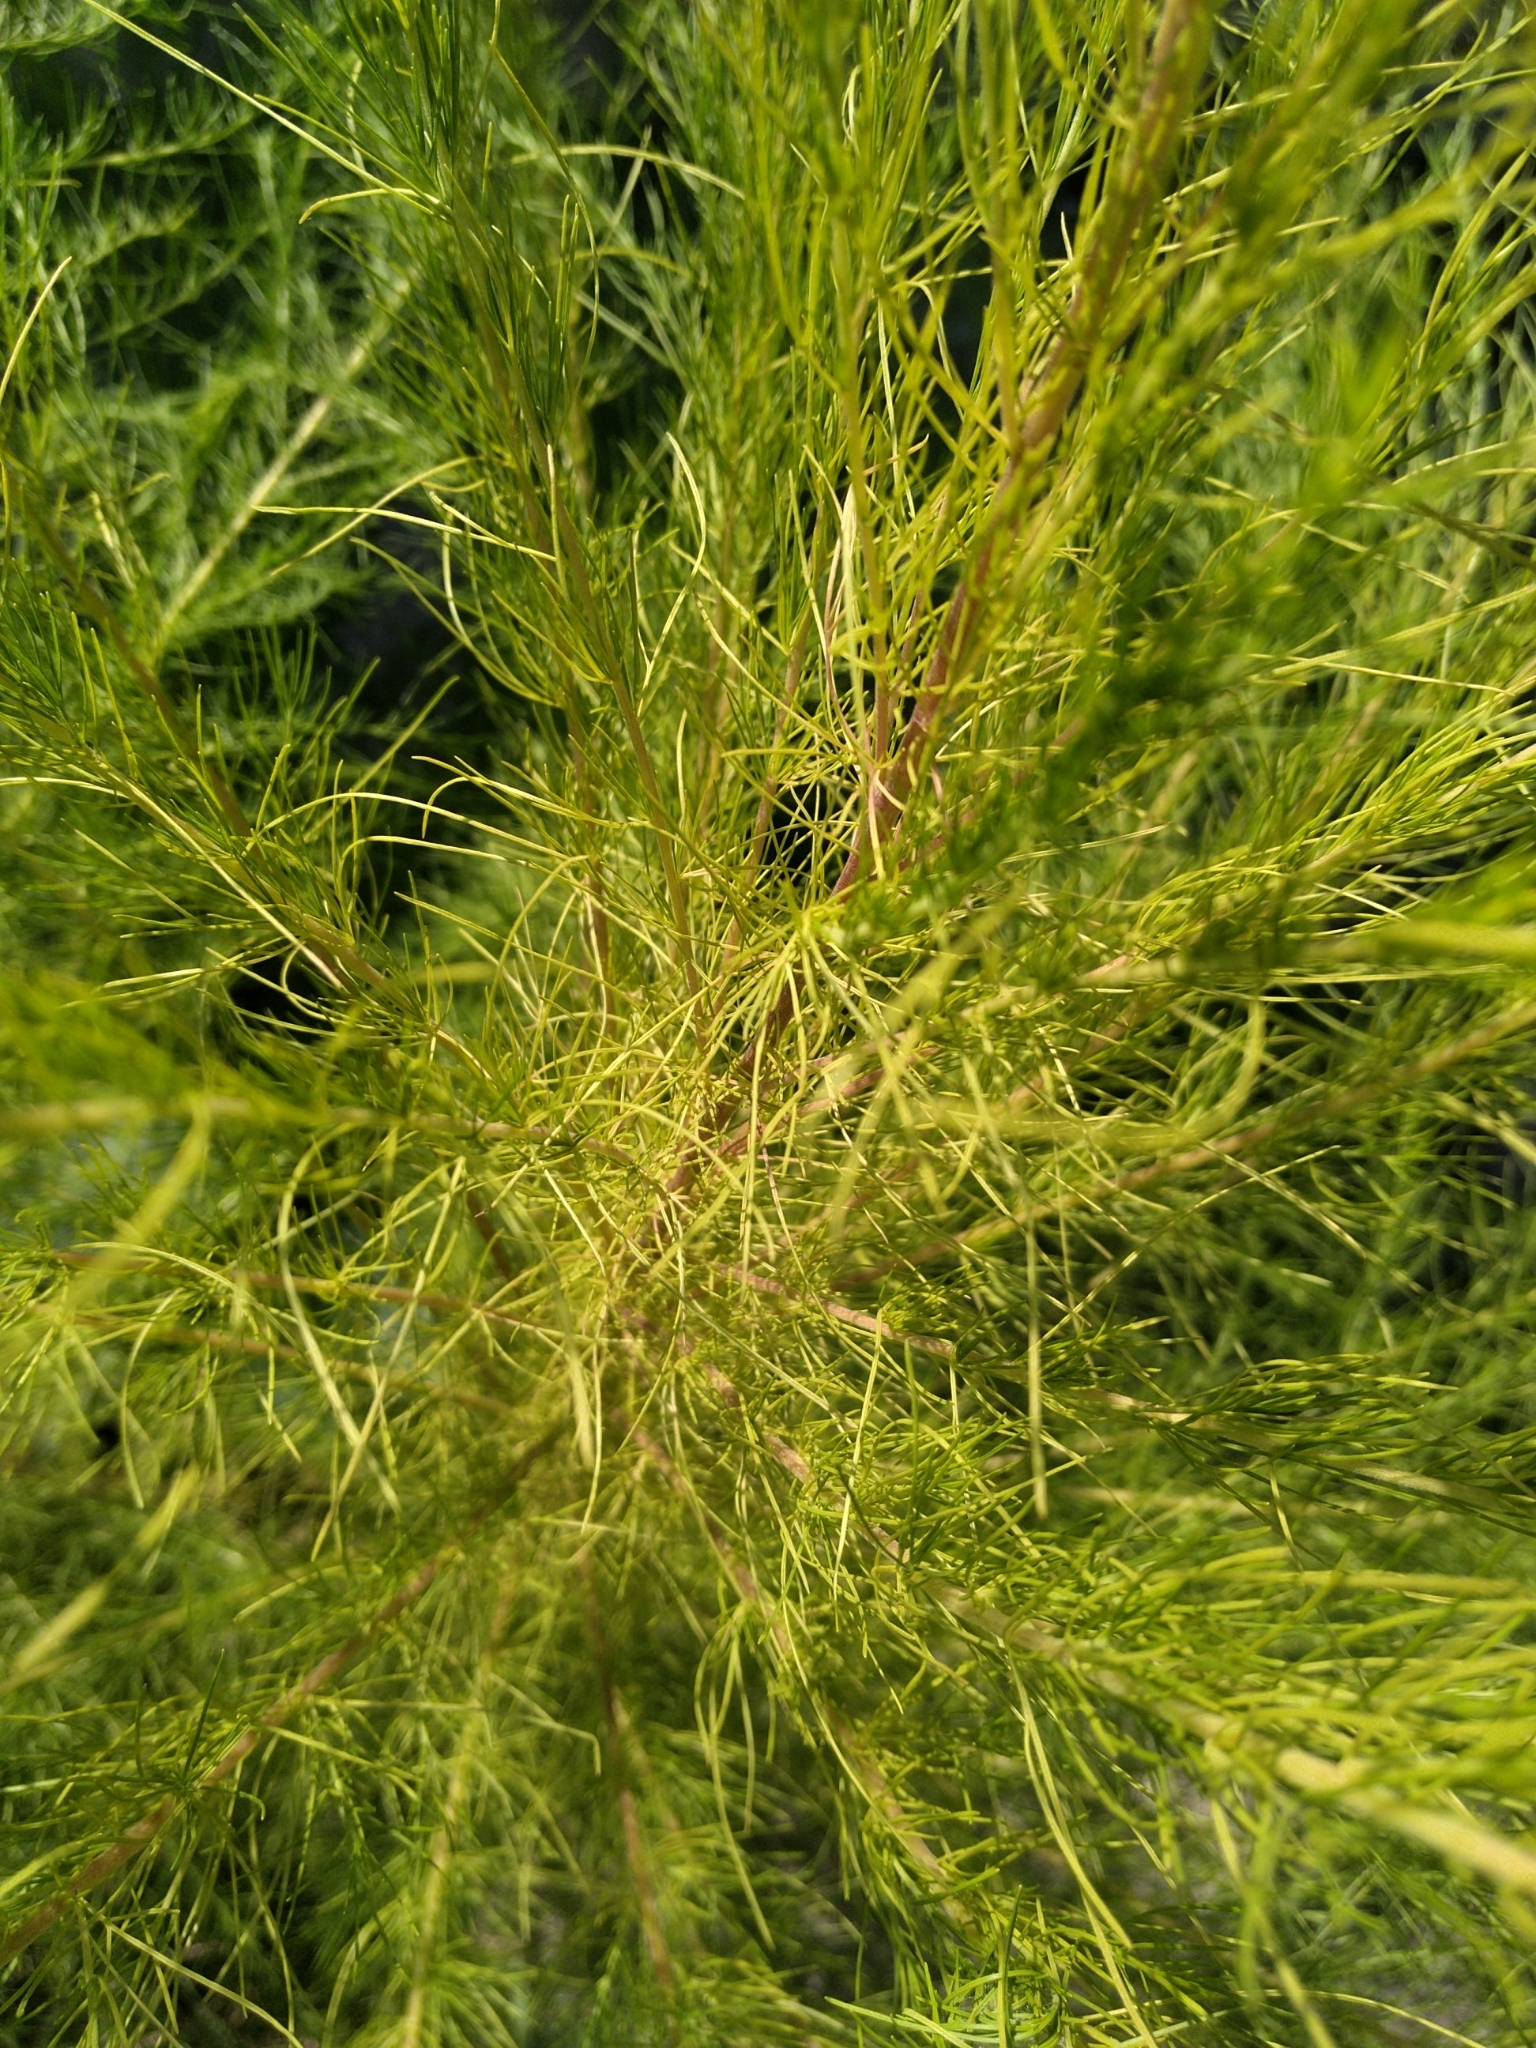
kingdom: Plantae
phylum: Tracheophyta
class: Magnoliopsida
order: Asterales
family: Asteraceae
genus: Eupatorium
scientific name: Eupatorium capillifolium
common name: Dog-fennel
